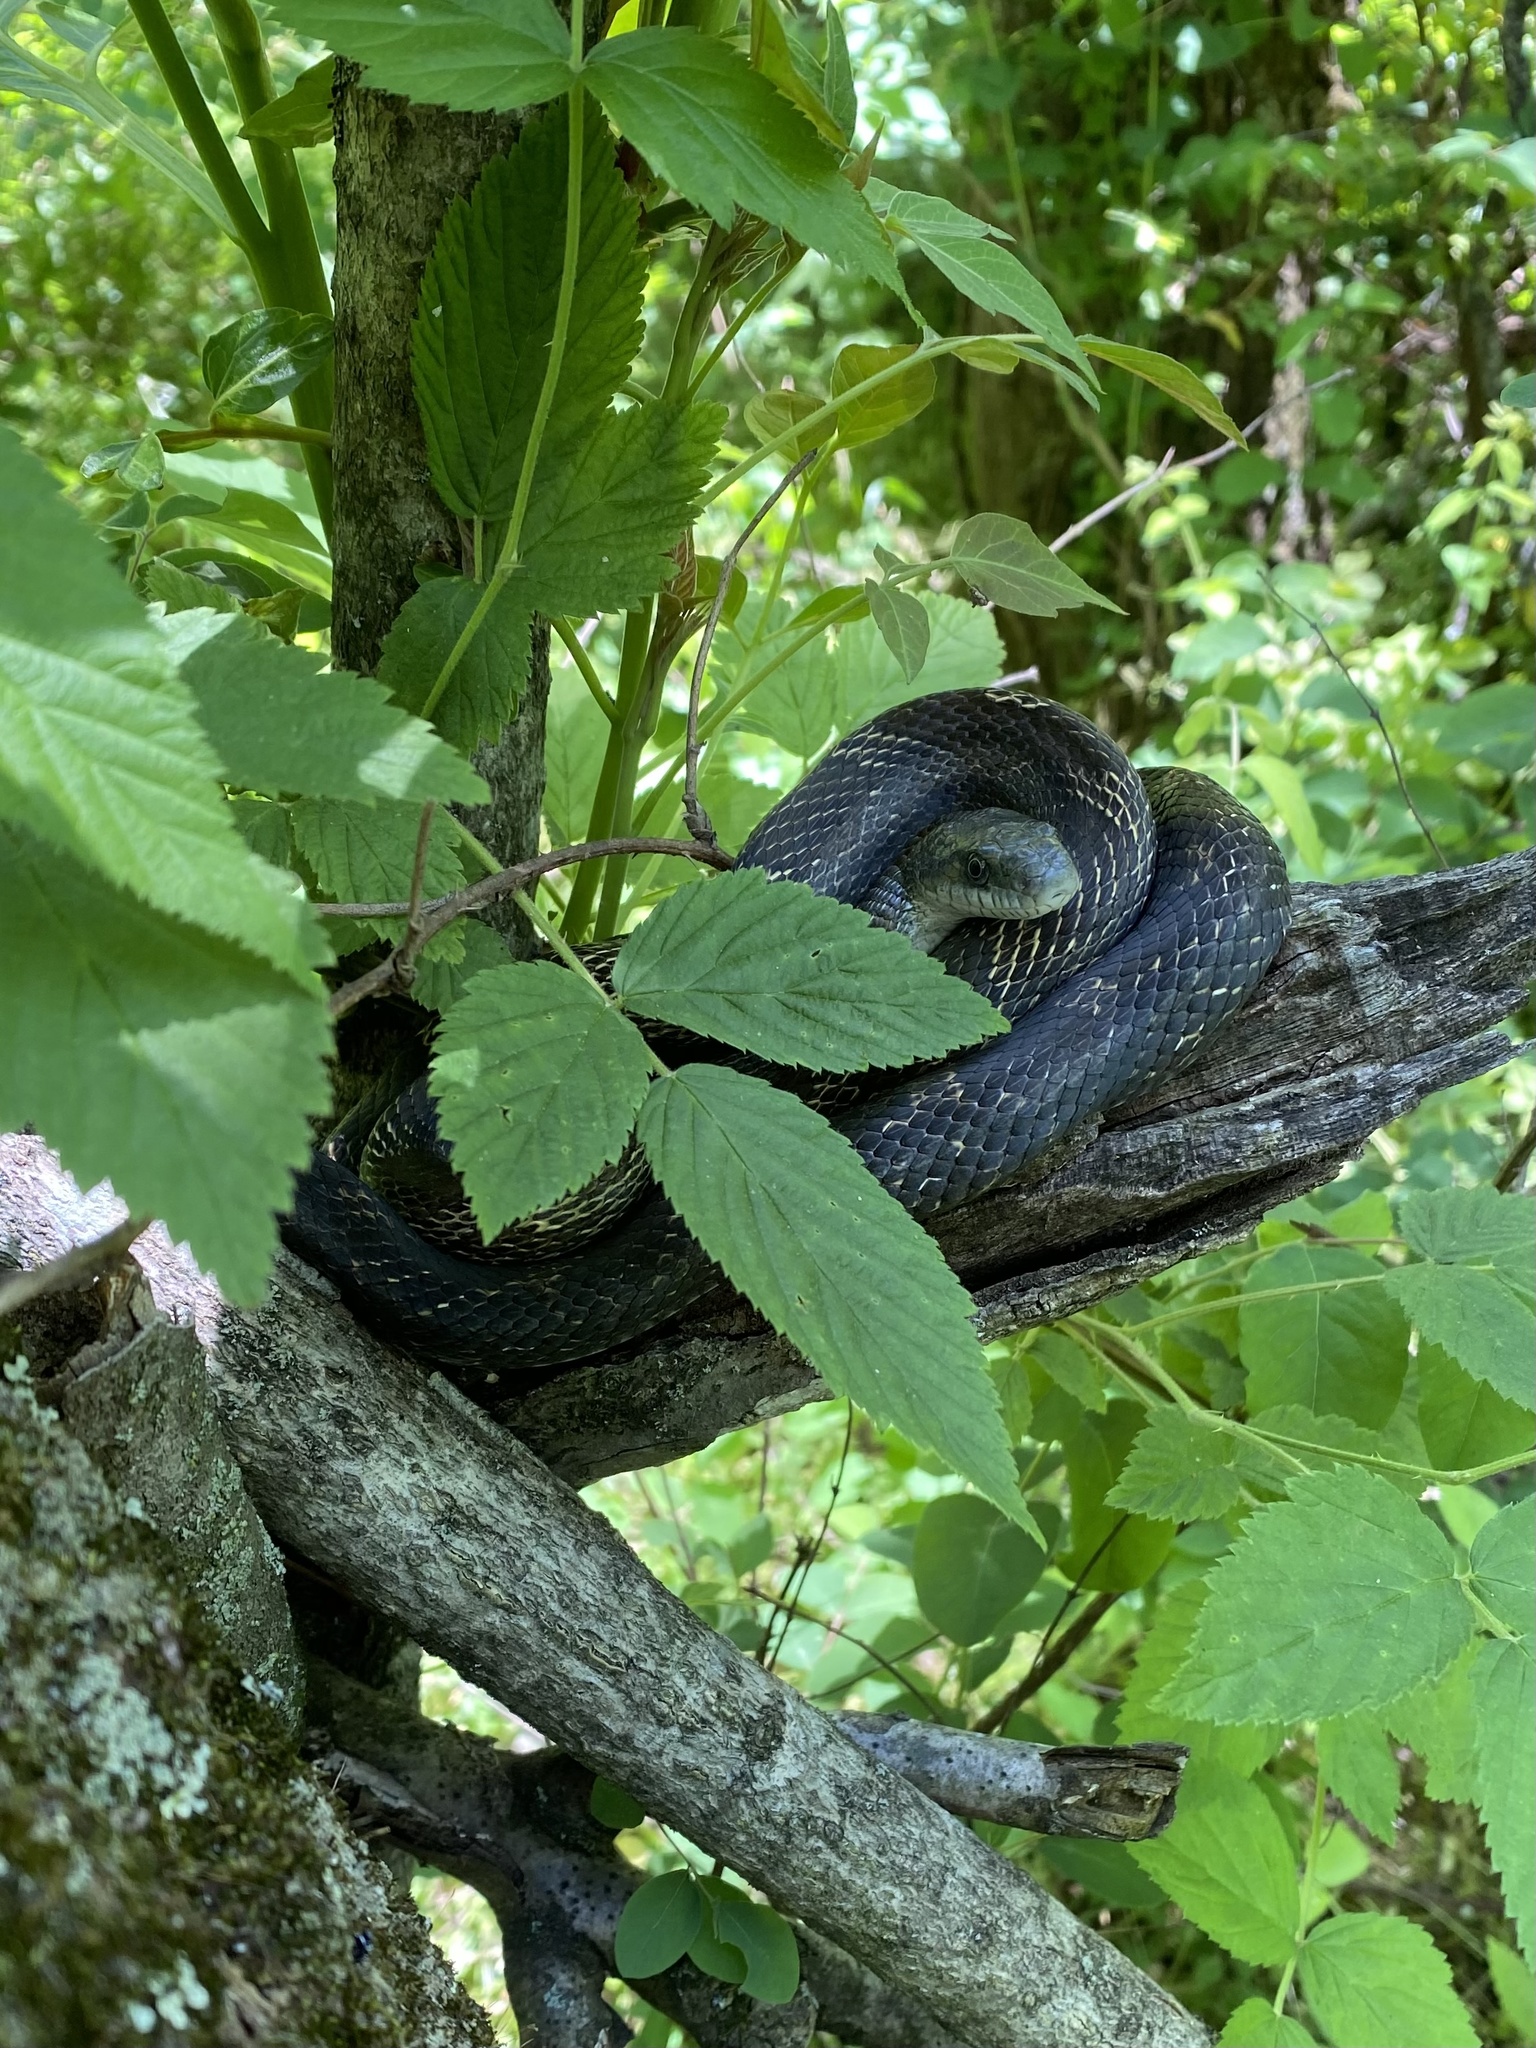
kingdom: Animalia
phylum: Chordata
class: Squamata
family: Colubridae
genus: Pantherophis
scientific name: Pantherophis spiloides
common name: Gray rat snake
